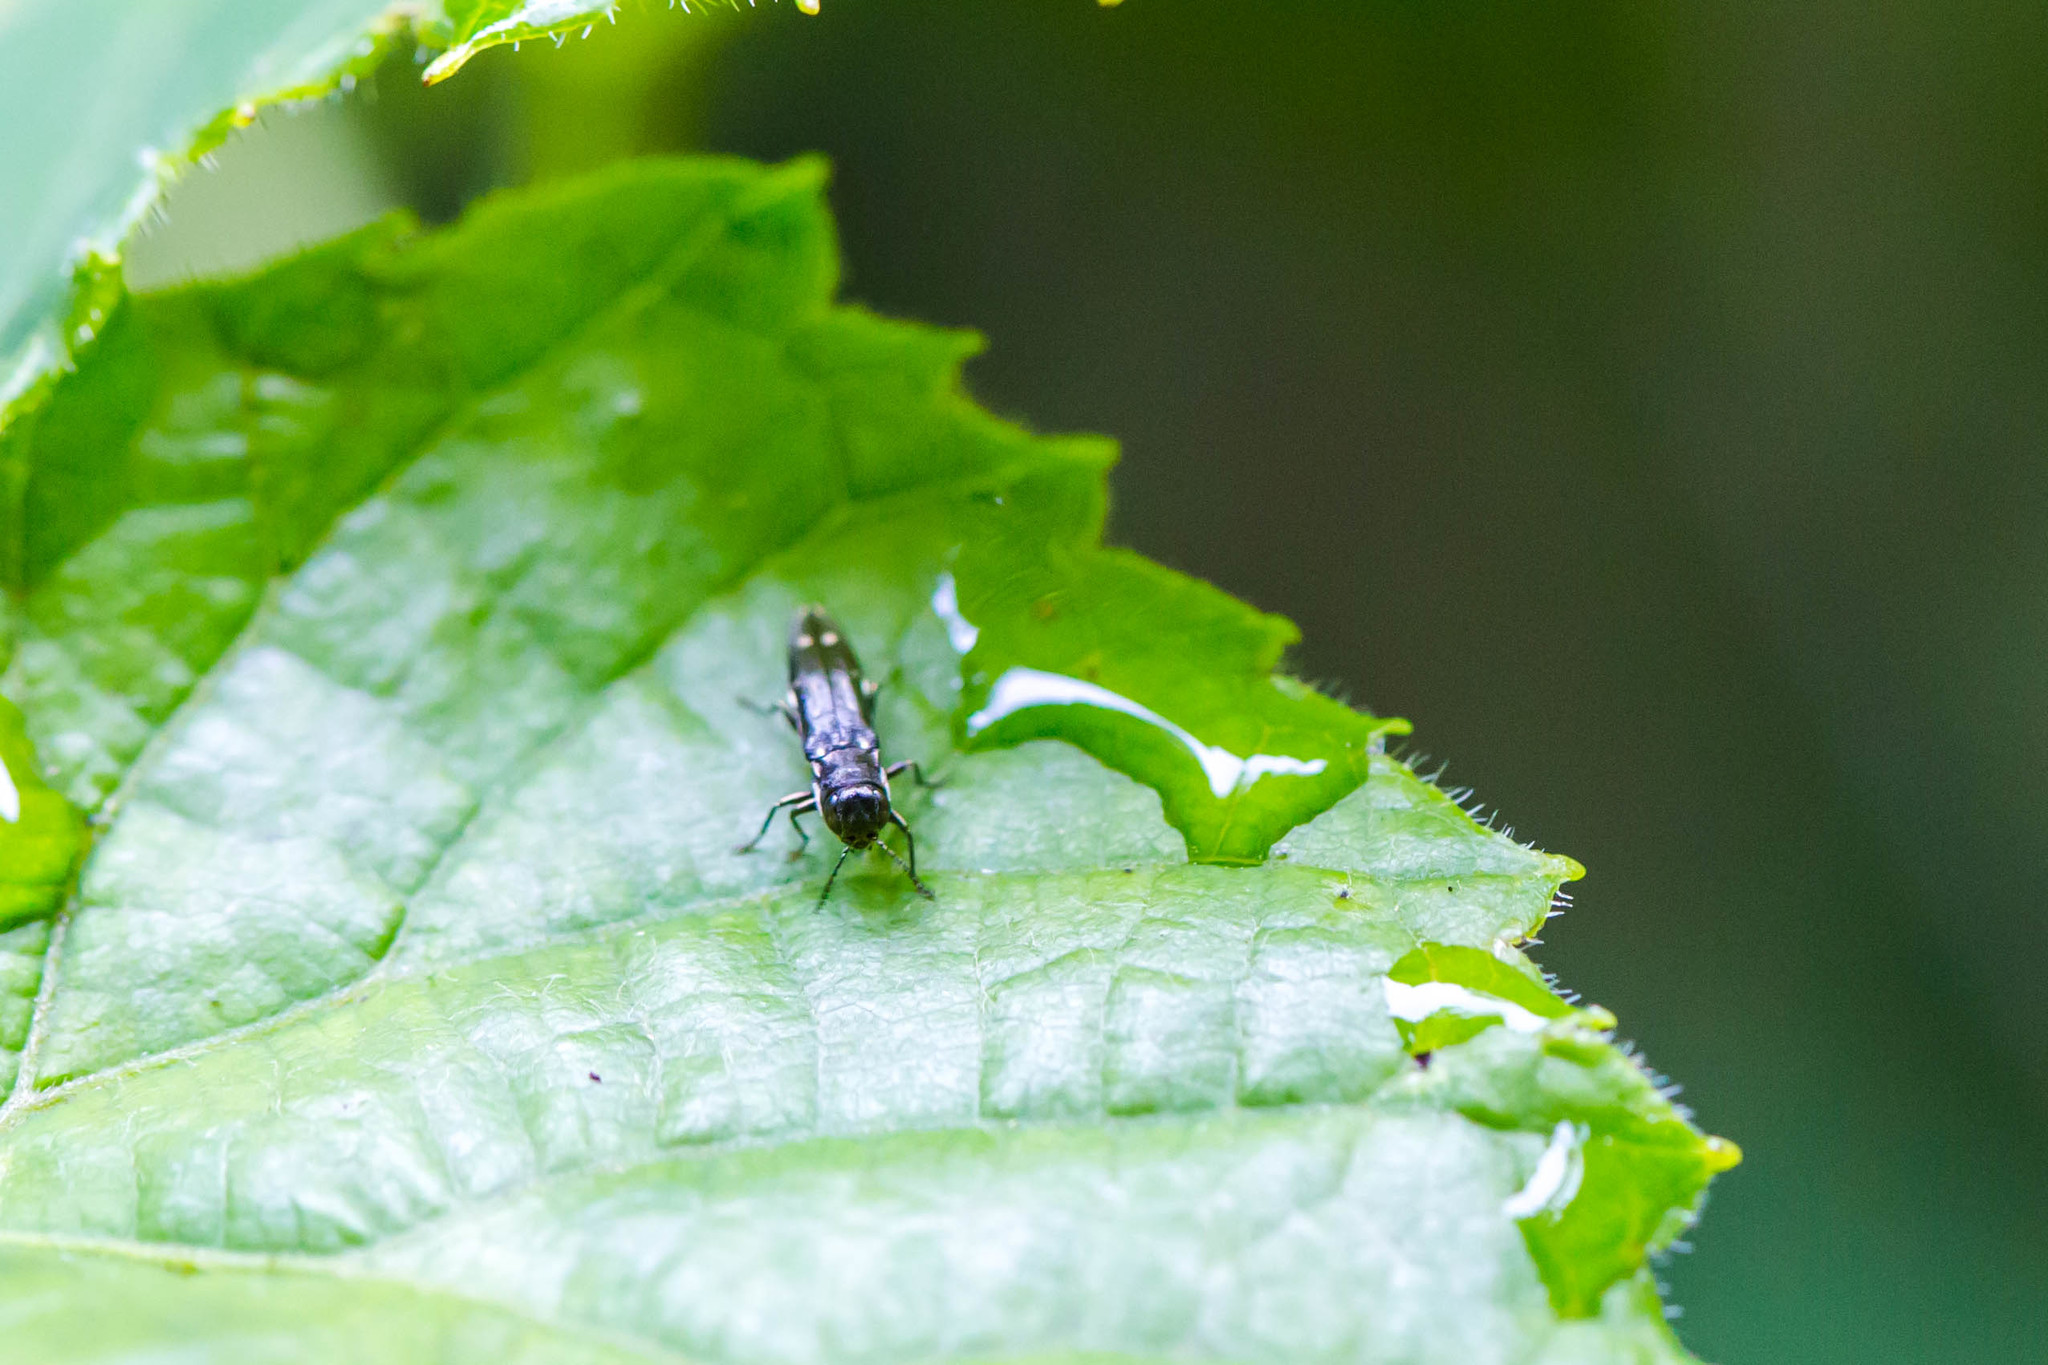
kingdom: Animalia
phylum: Arthropoda
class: Insecta
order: Coleoptera
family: Buprestidae
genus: Agrilus
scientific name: Agrilus obsoletoguttatus
